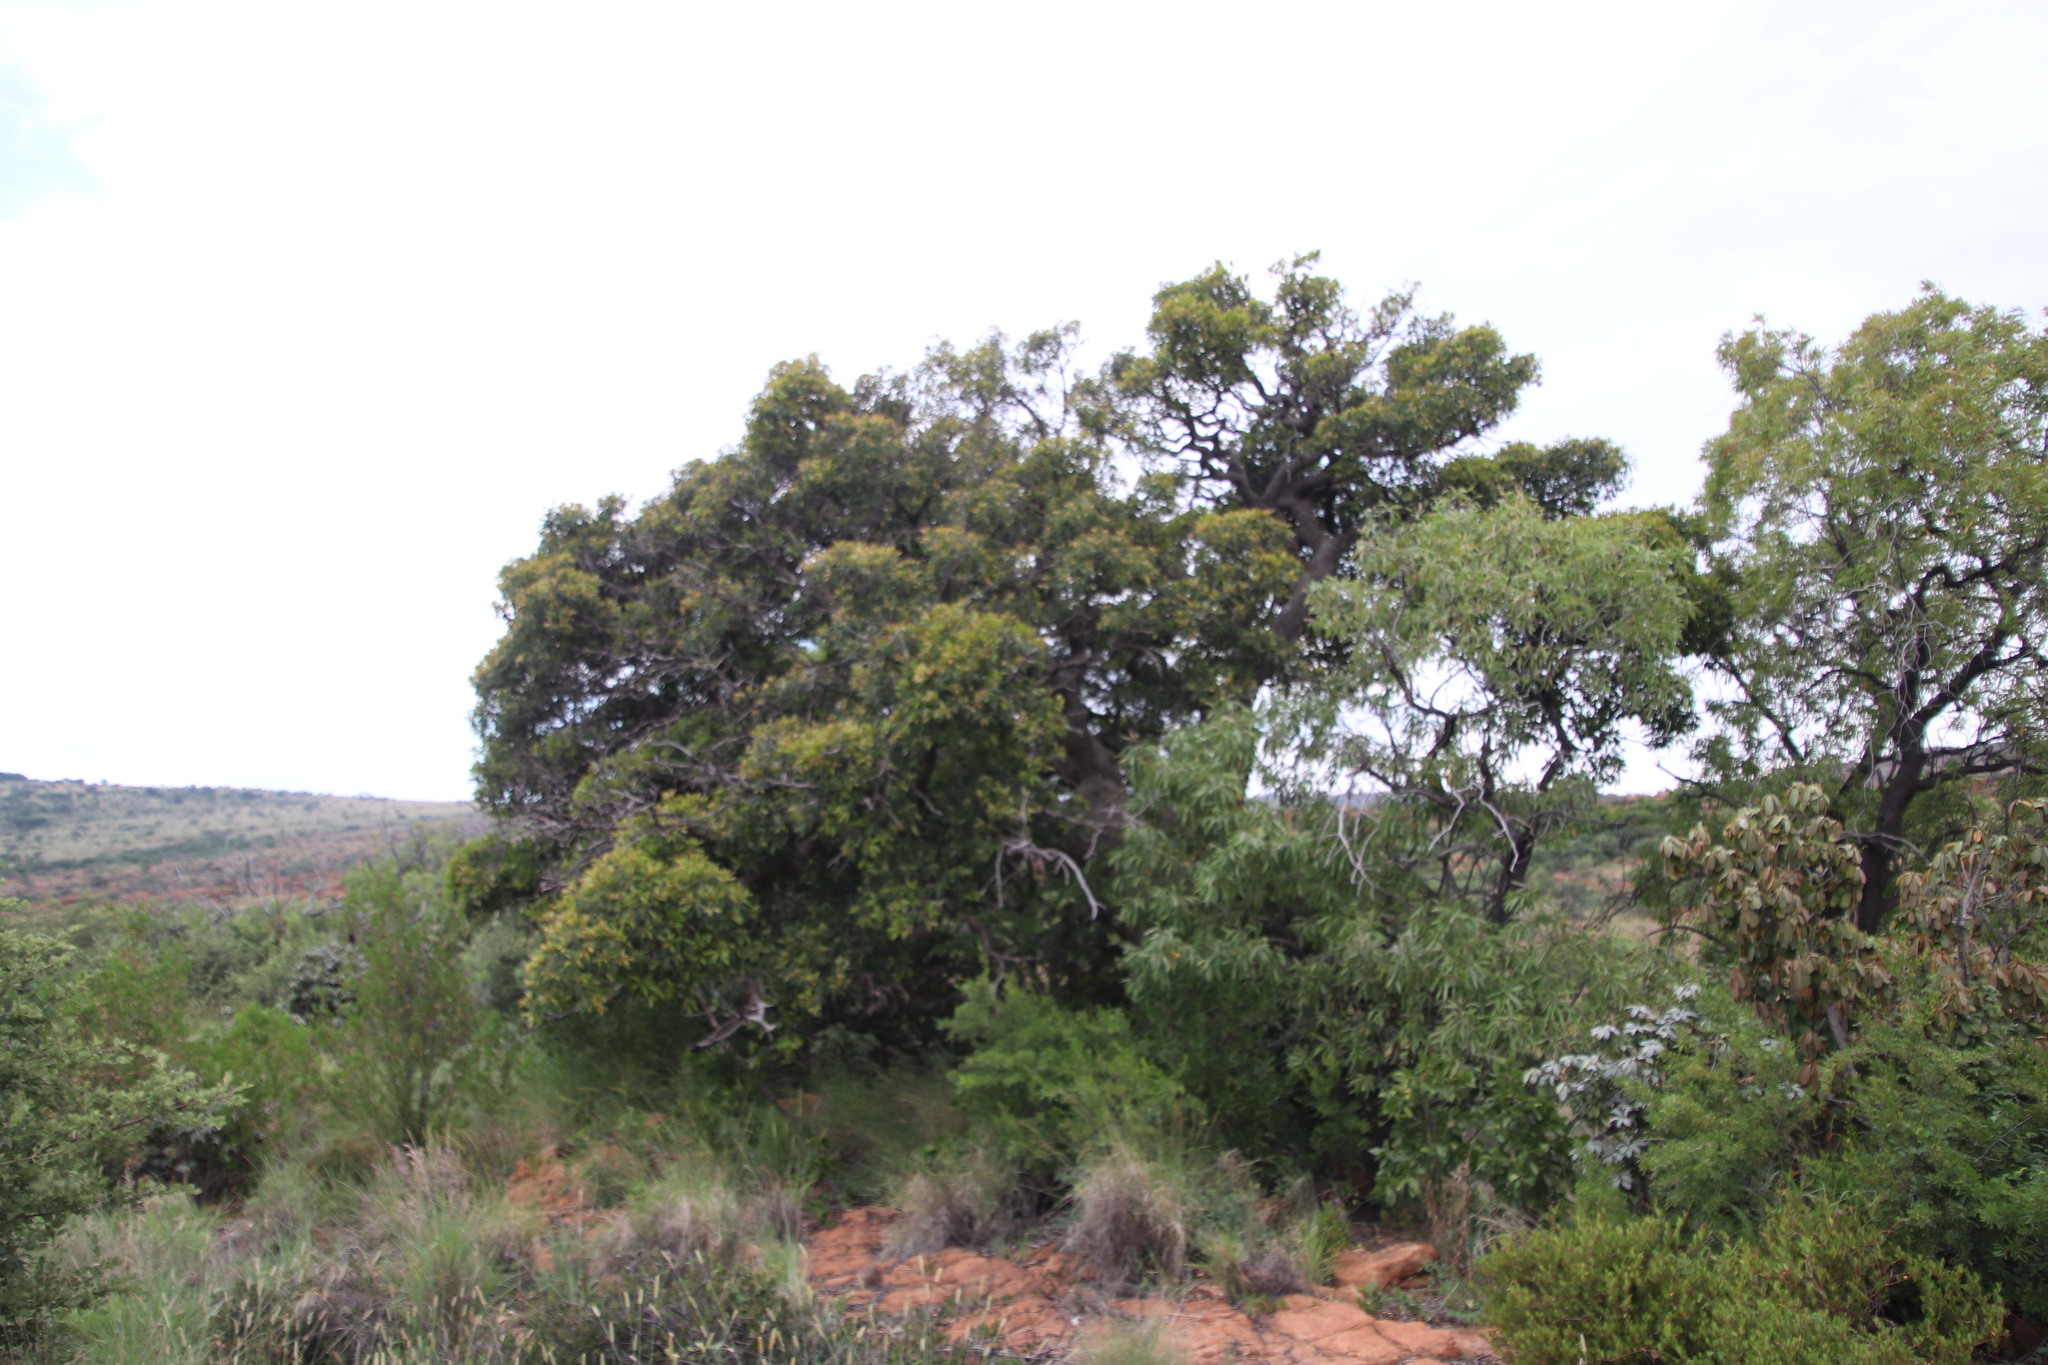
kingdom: Plantae
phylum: Tracheophyta
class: Magnoliopsida
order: Ericales
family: Sapotaceae
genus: Mimusops
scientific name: Mimusops zeyheri
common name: Transvaal red milkwood
